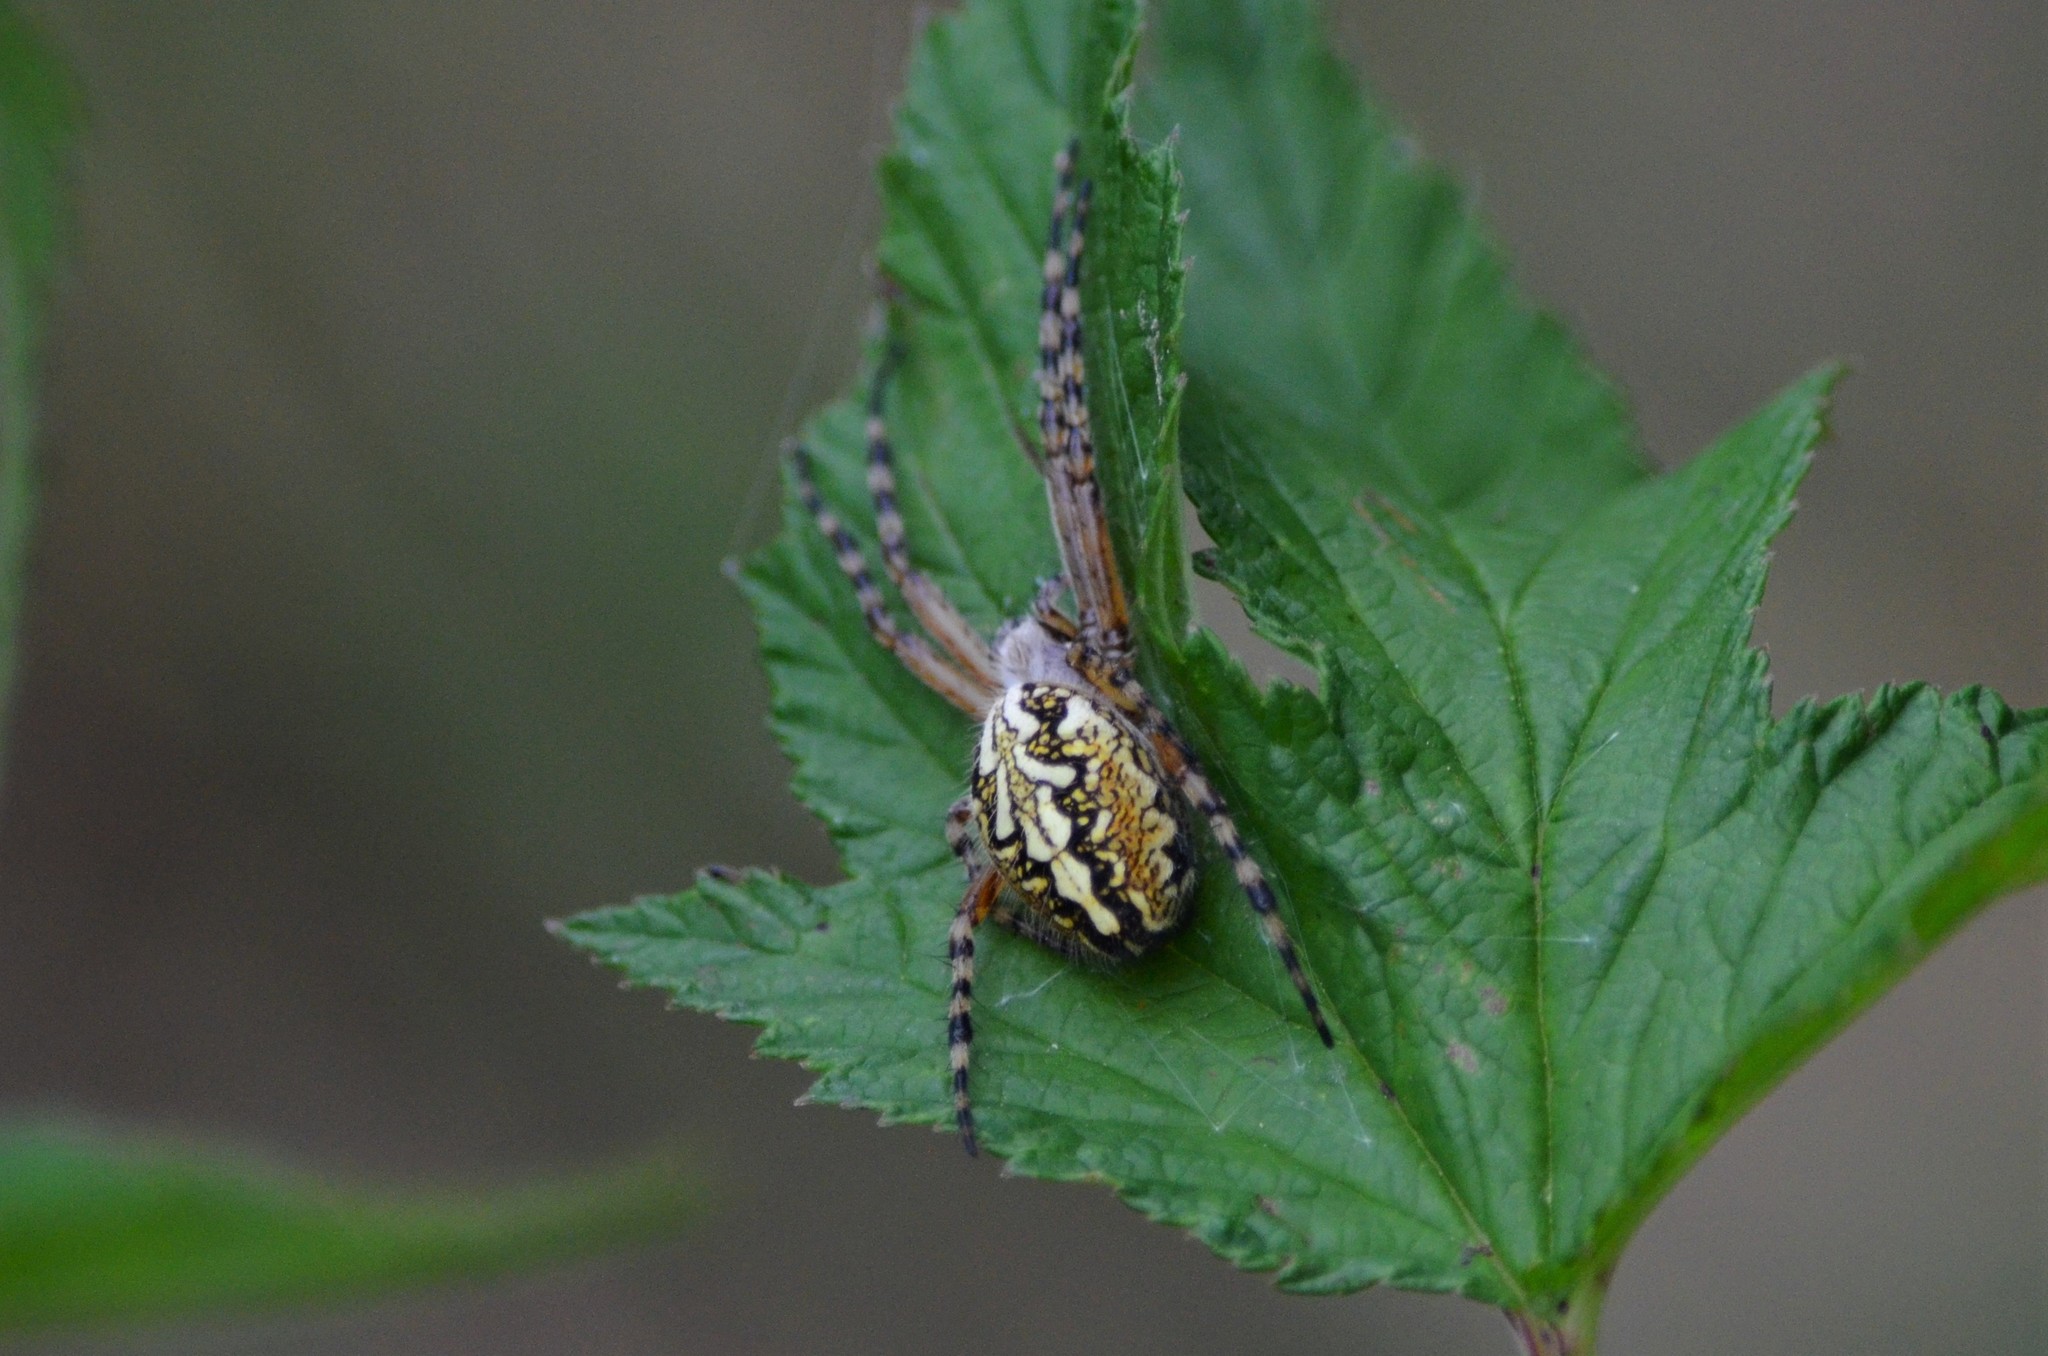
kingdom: Animalia
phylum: Arthropoda
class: Arachnida
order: Araneae
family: Araneidae
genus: Aculepeira
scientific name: Aculepeira ceropegia
